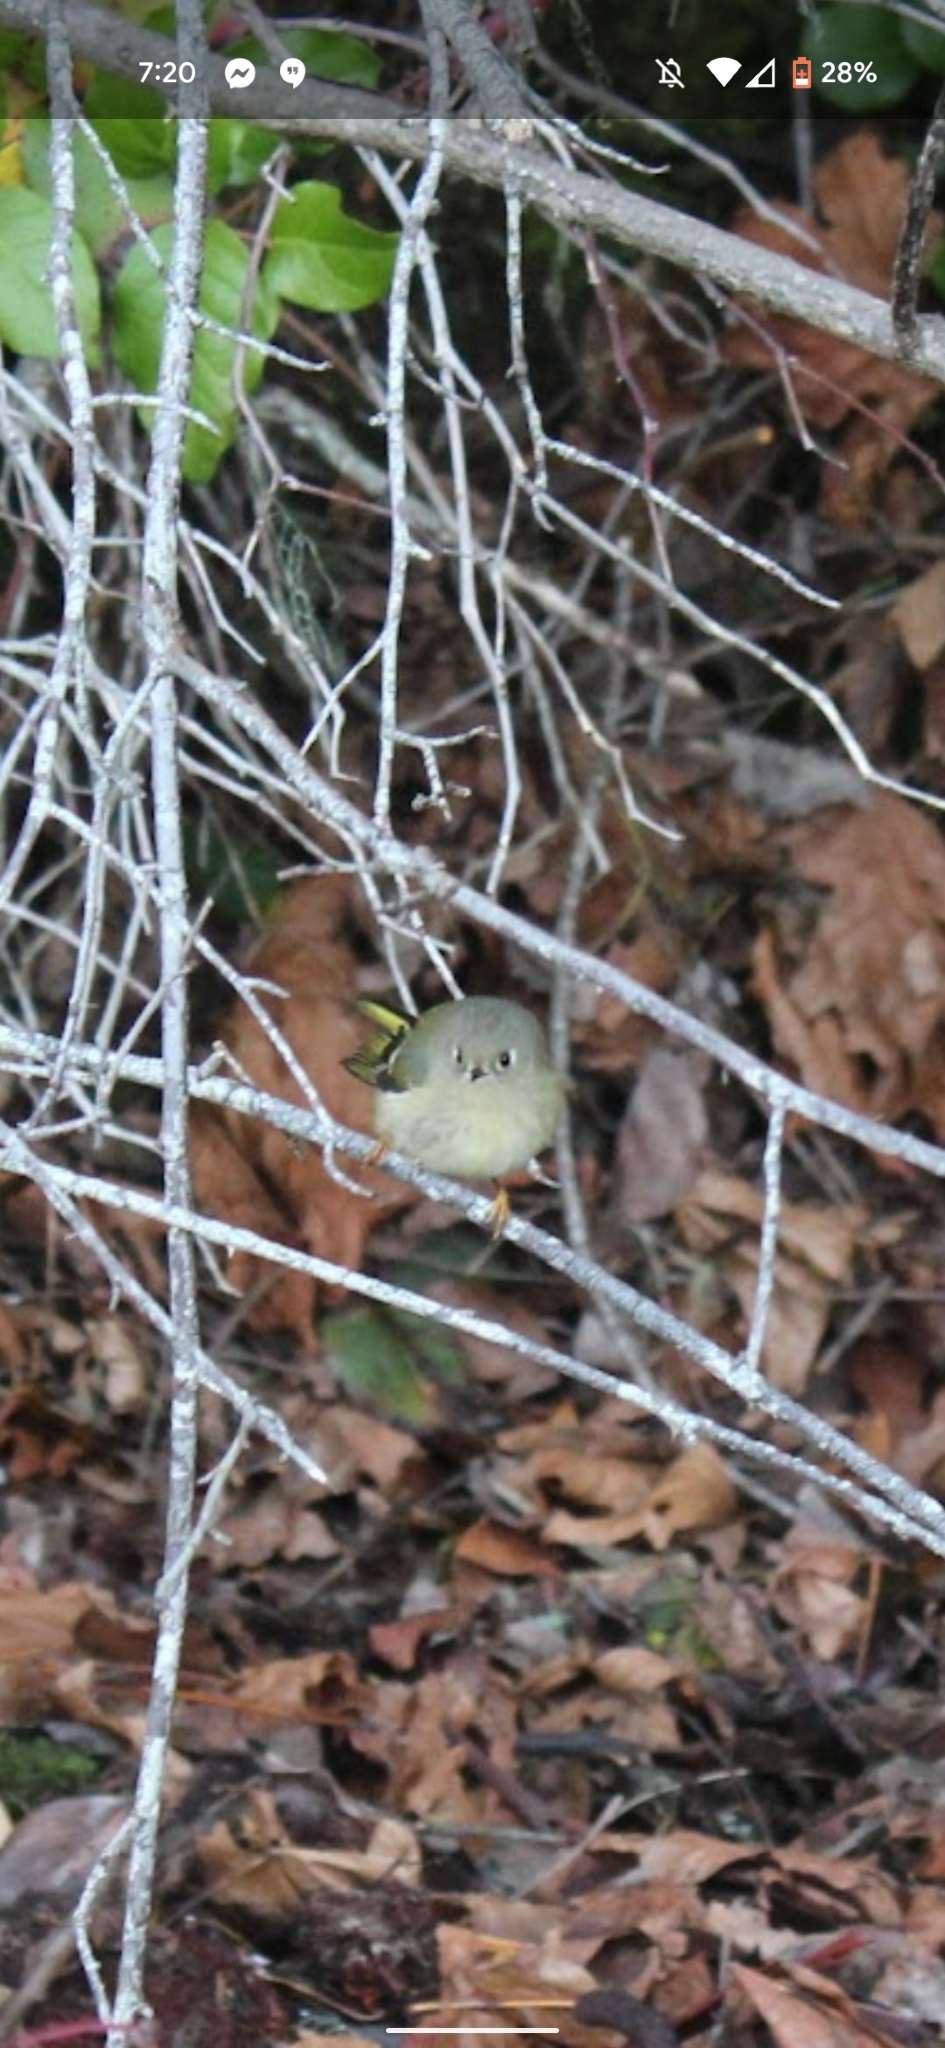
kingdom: Animalia
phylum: Chordata
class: Aves
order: Passeriformes
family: Regulidae
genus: Regulus
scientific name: Regulus calendula
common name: Ruby-crowned kinglet
